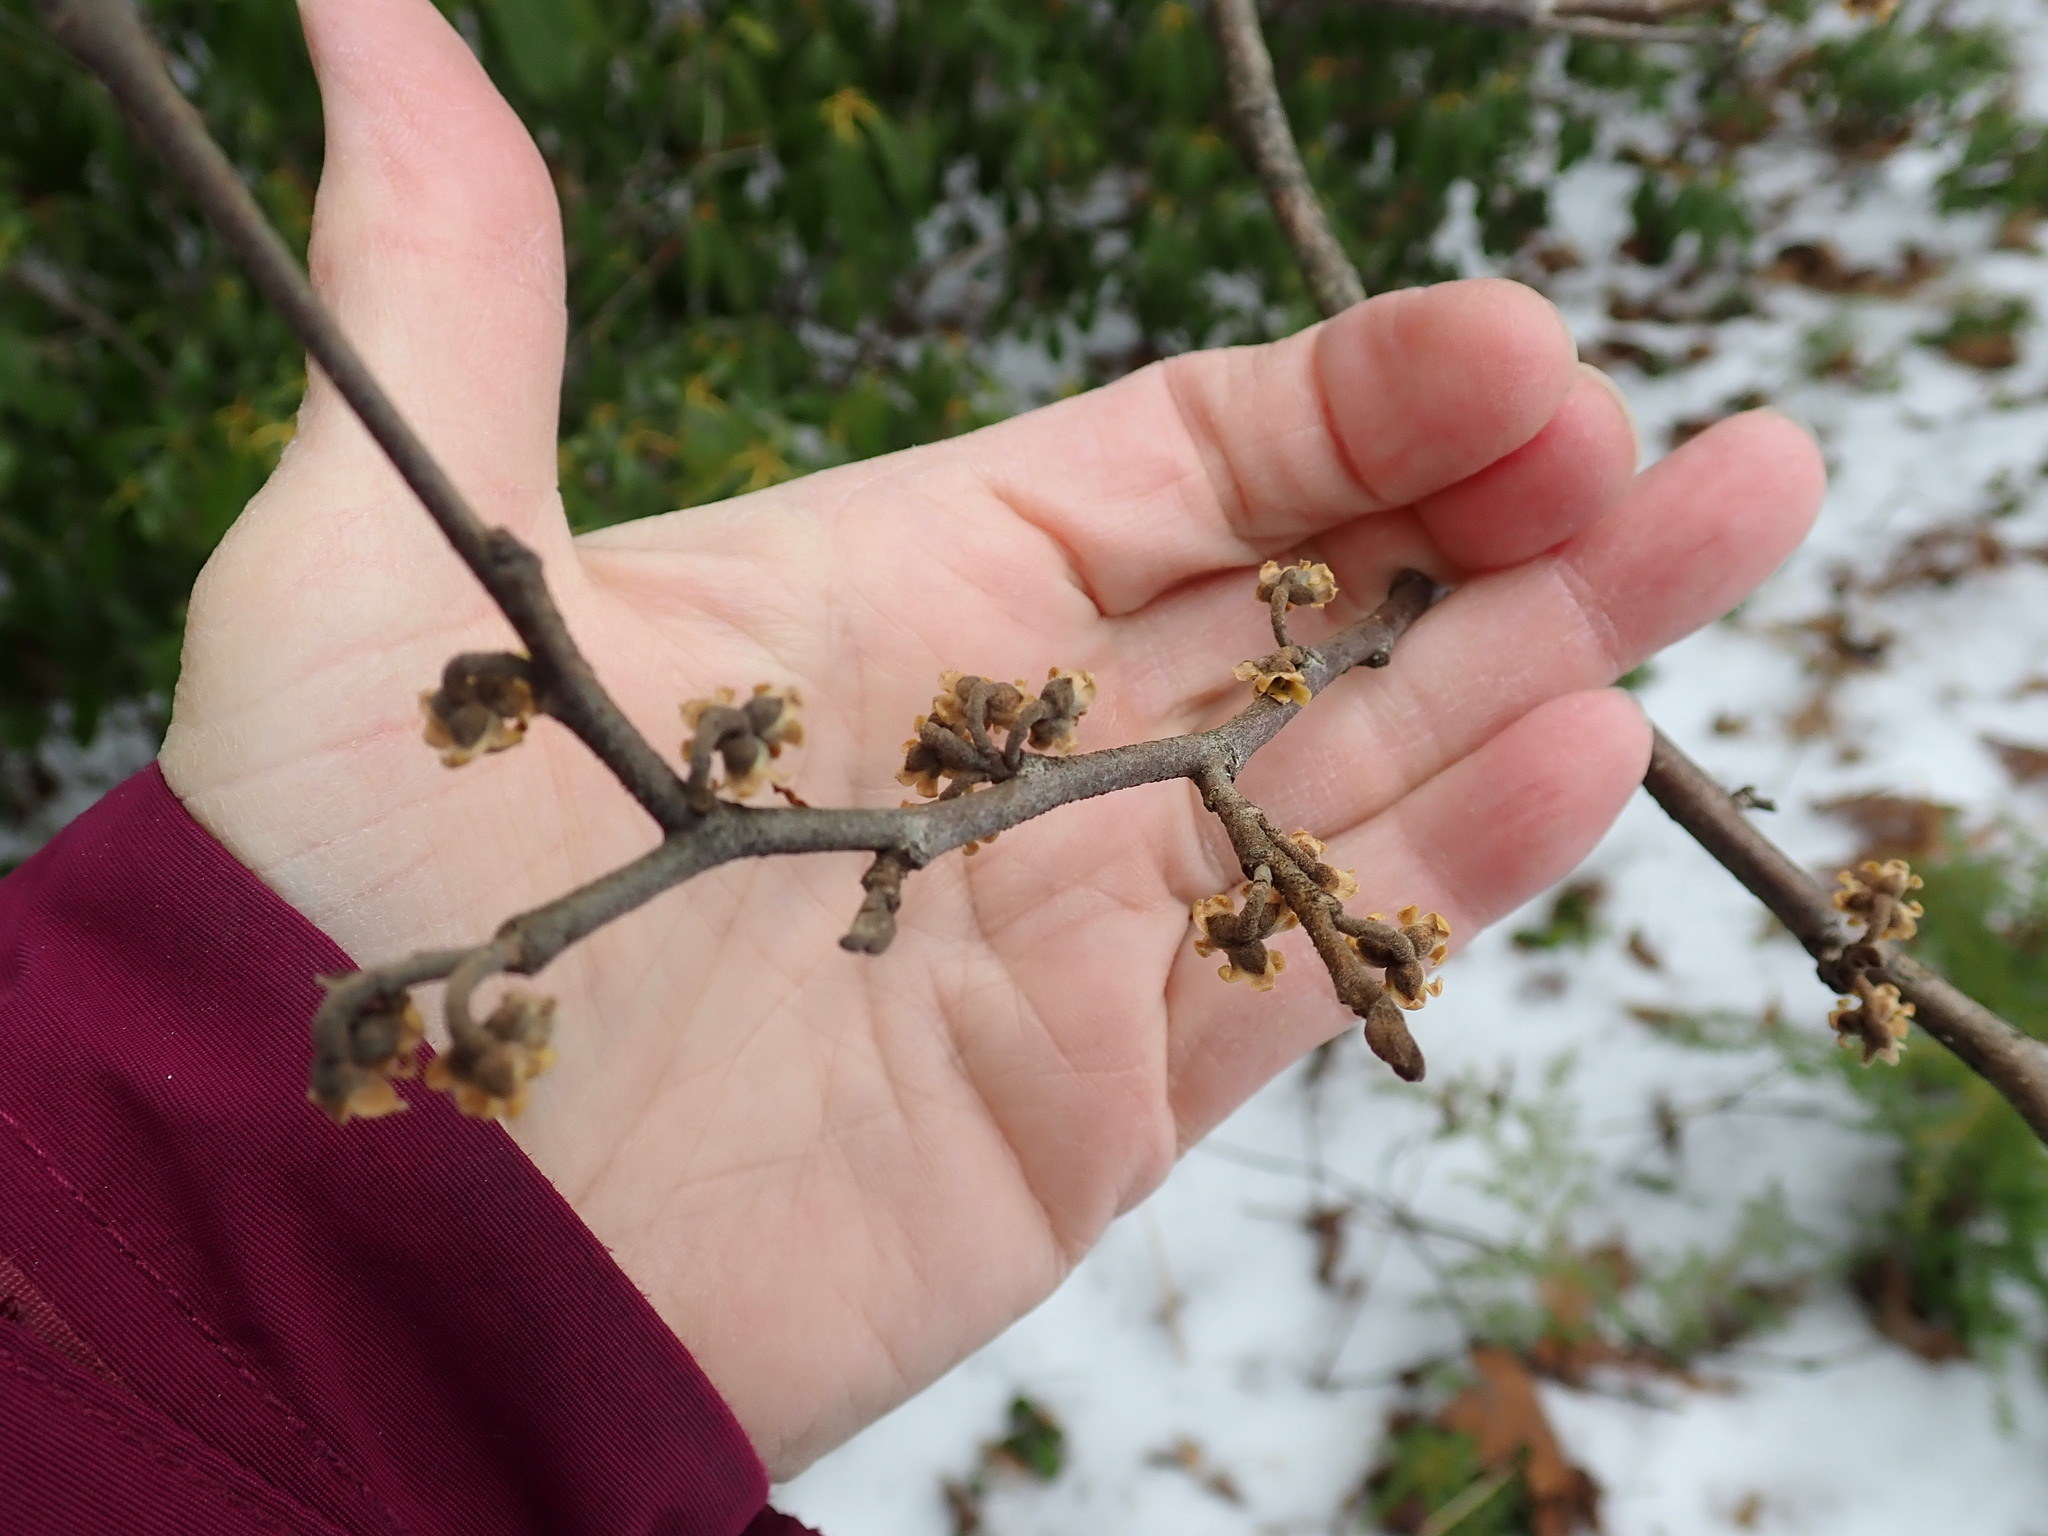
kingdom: Plantae
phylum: Tracheophyta
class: Magnoliopsida
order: Saxifragales
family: Hamamelidaceae
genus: Hamamelis
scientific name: Hamamelis virginiana
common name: Witch-hazel
